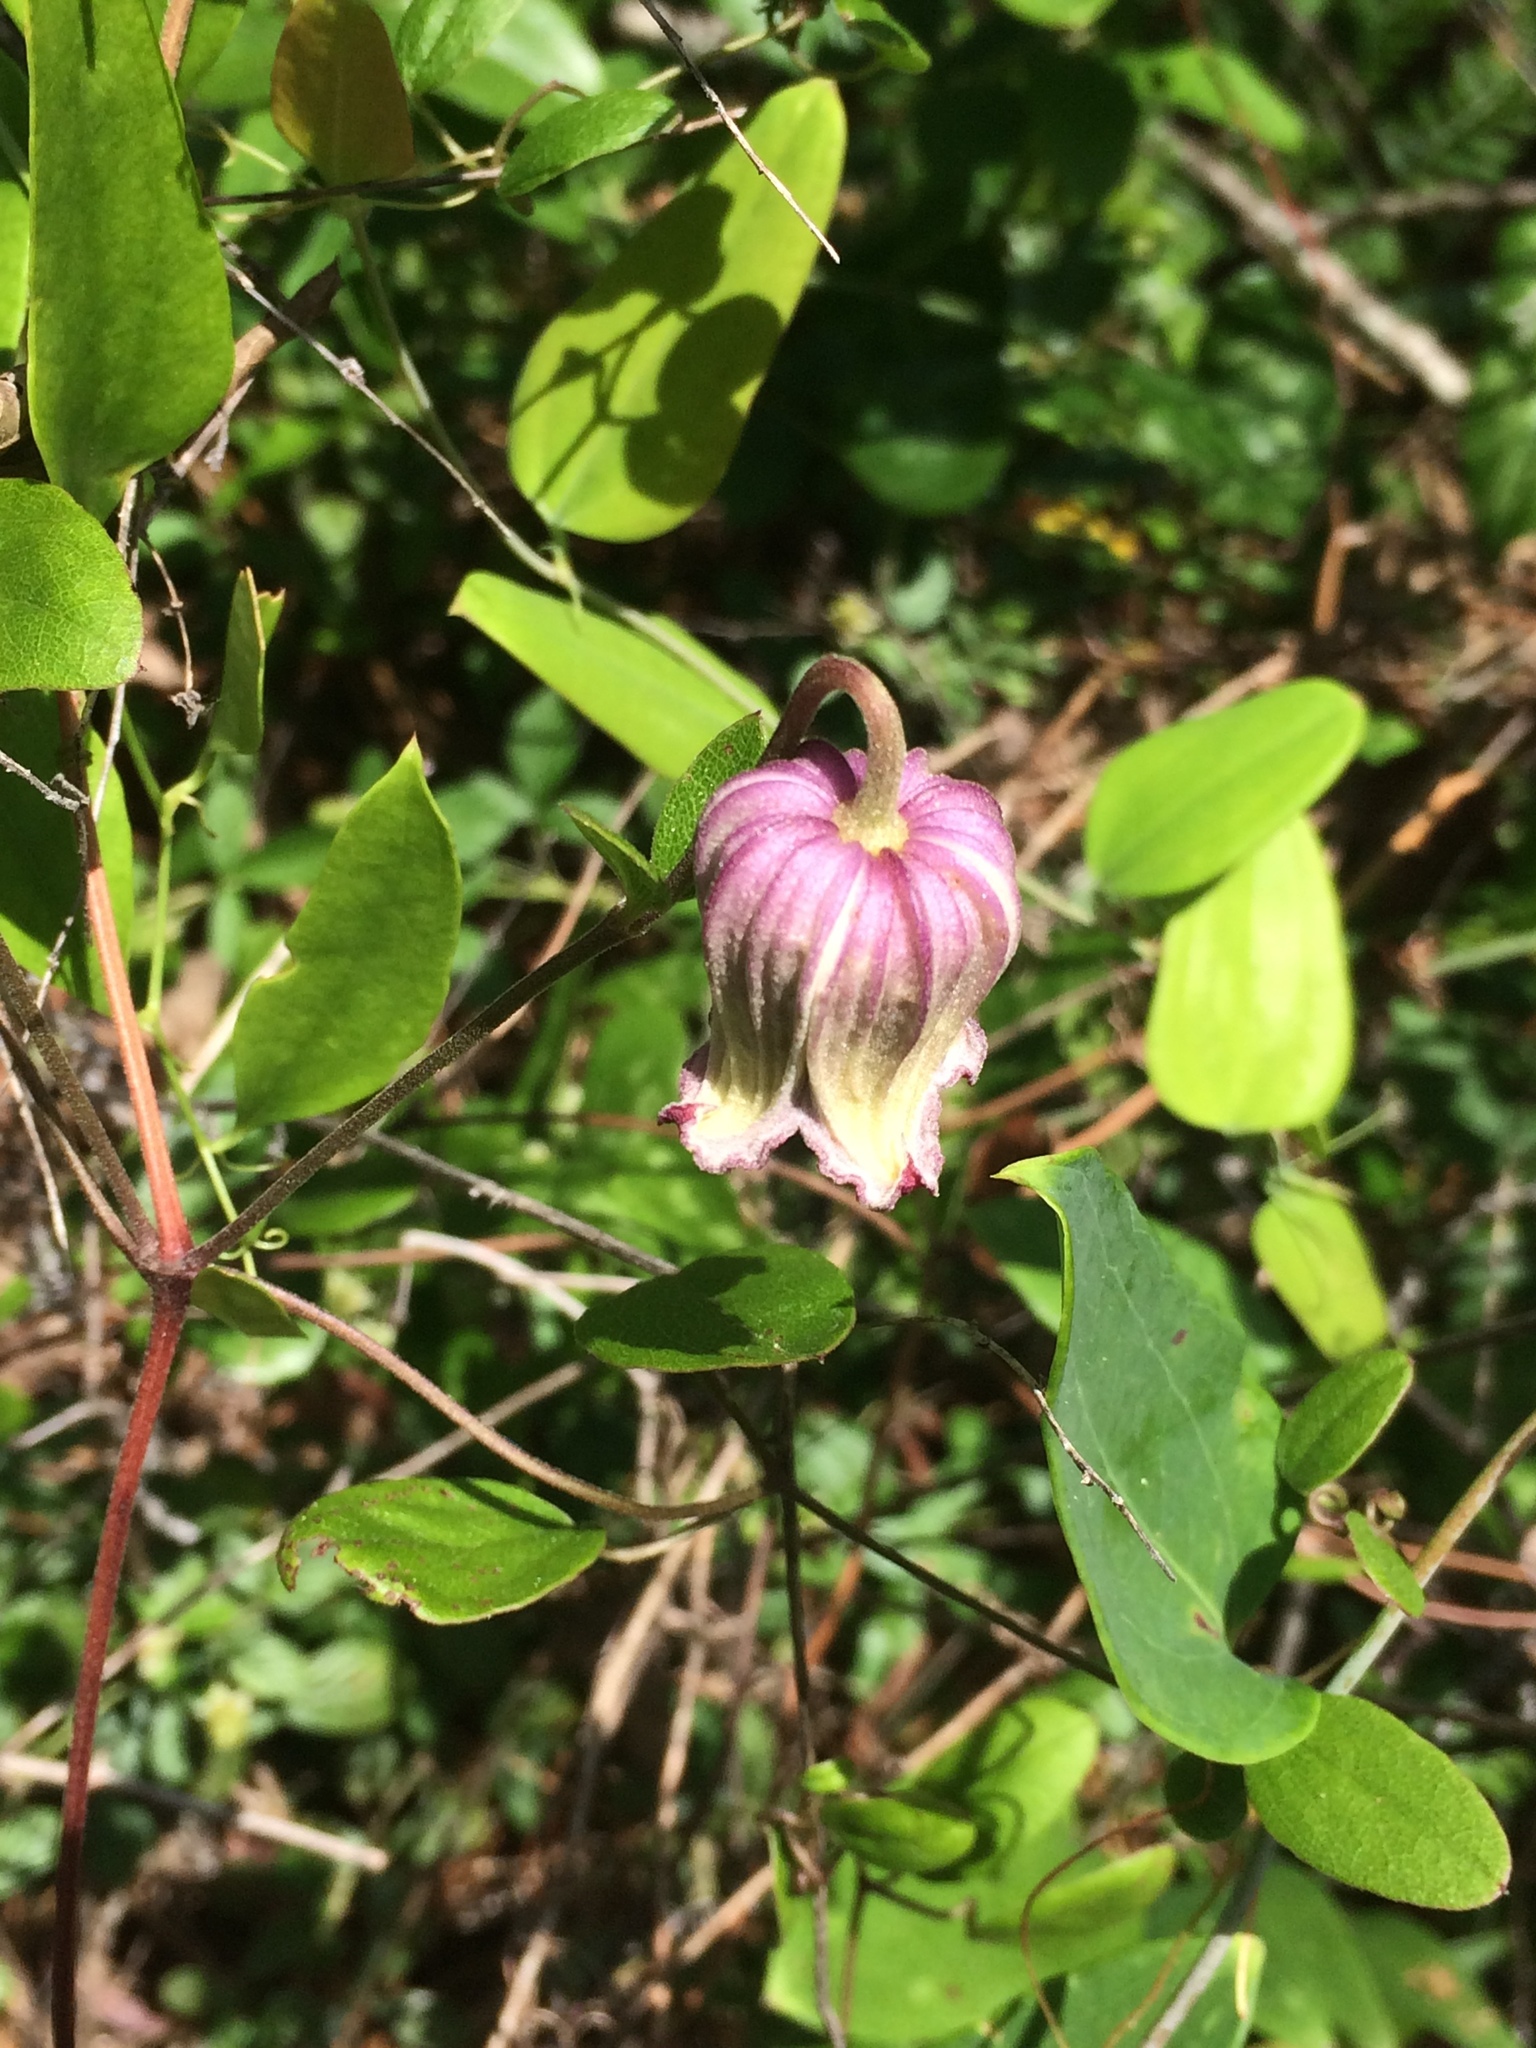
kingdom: Plantae
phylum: Tracheophyta
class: Magnoliopsida
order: Ranunculales
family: Ranunculaceae
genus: Clematis
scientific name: Clematis reticulata
